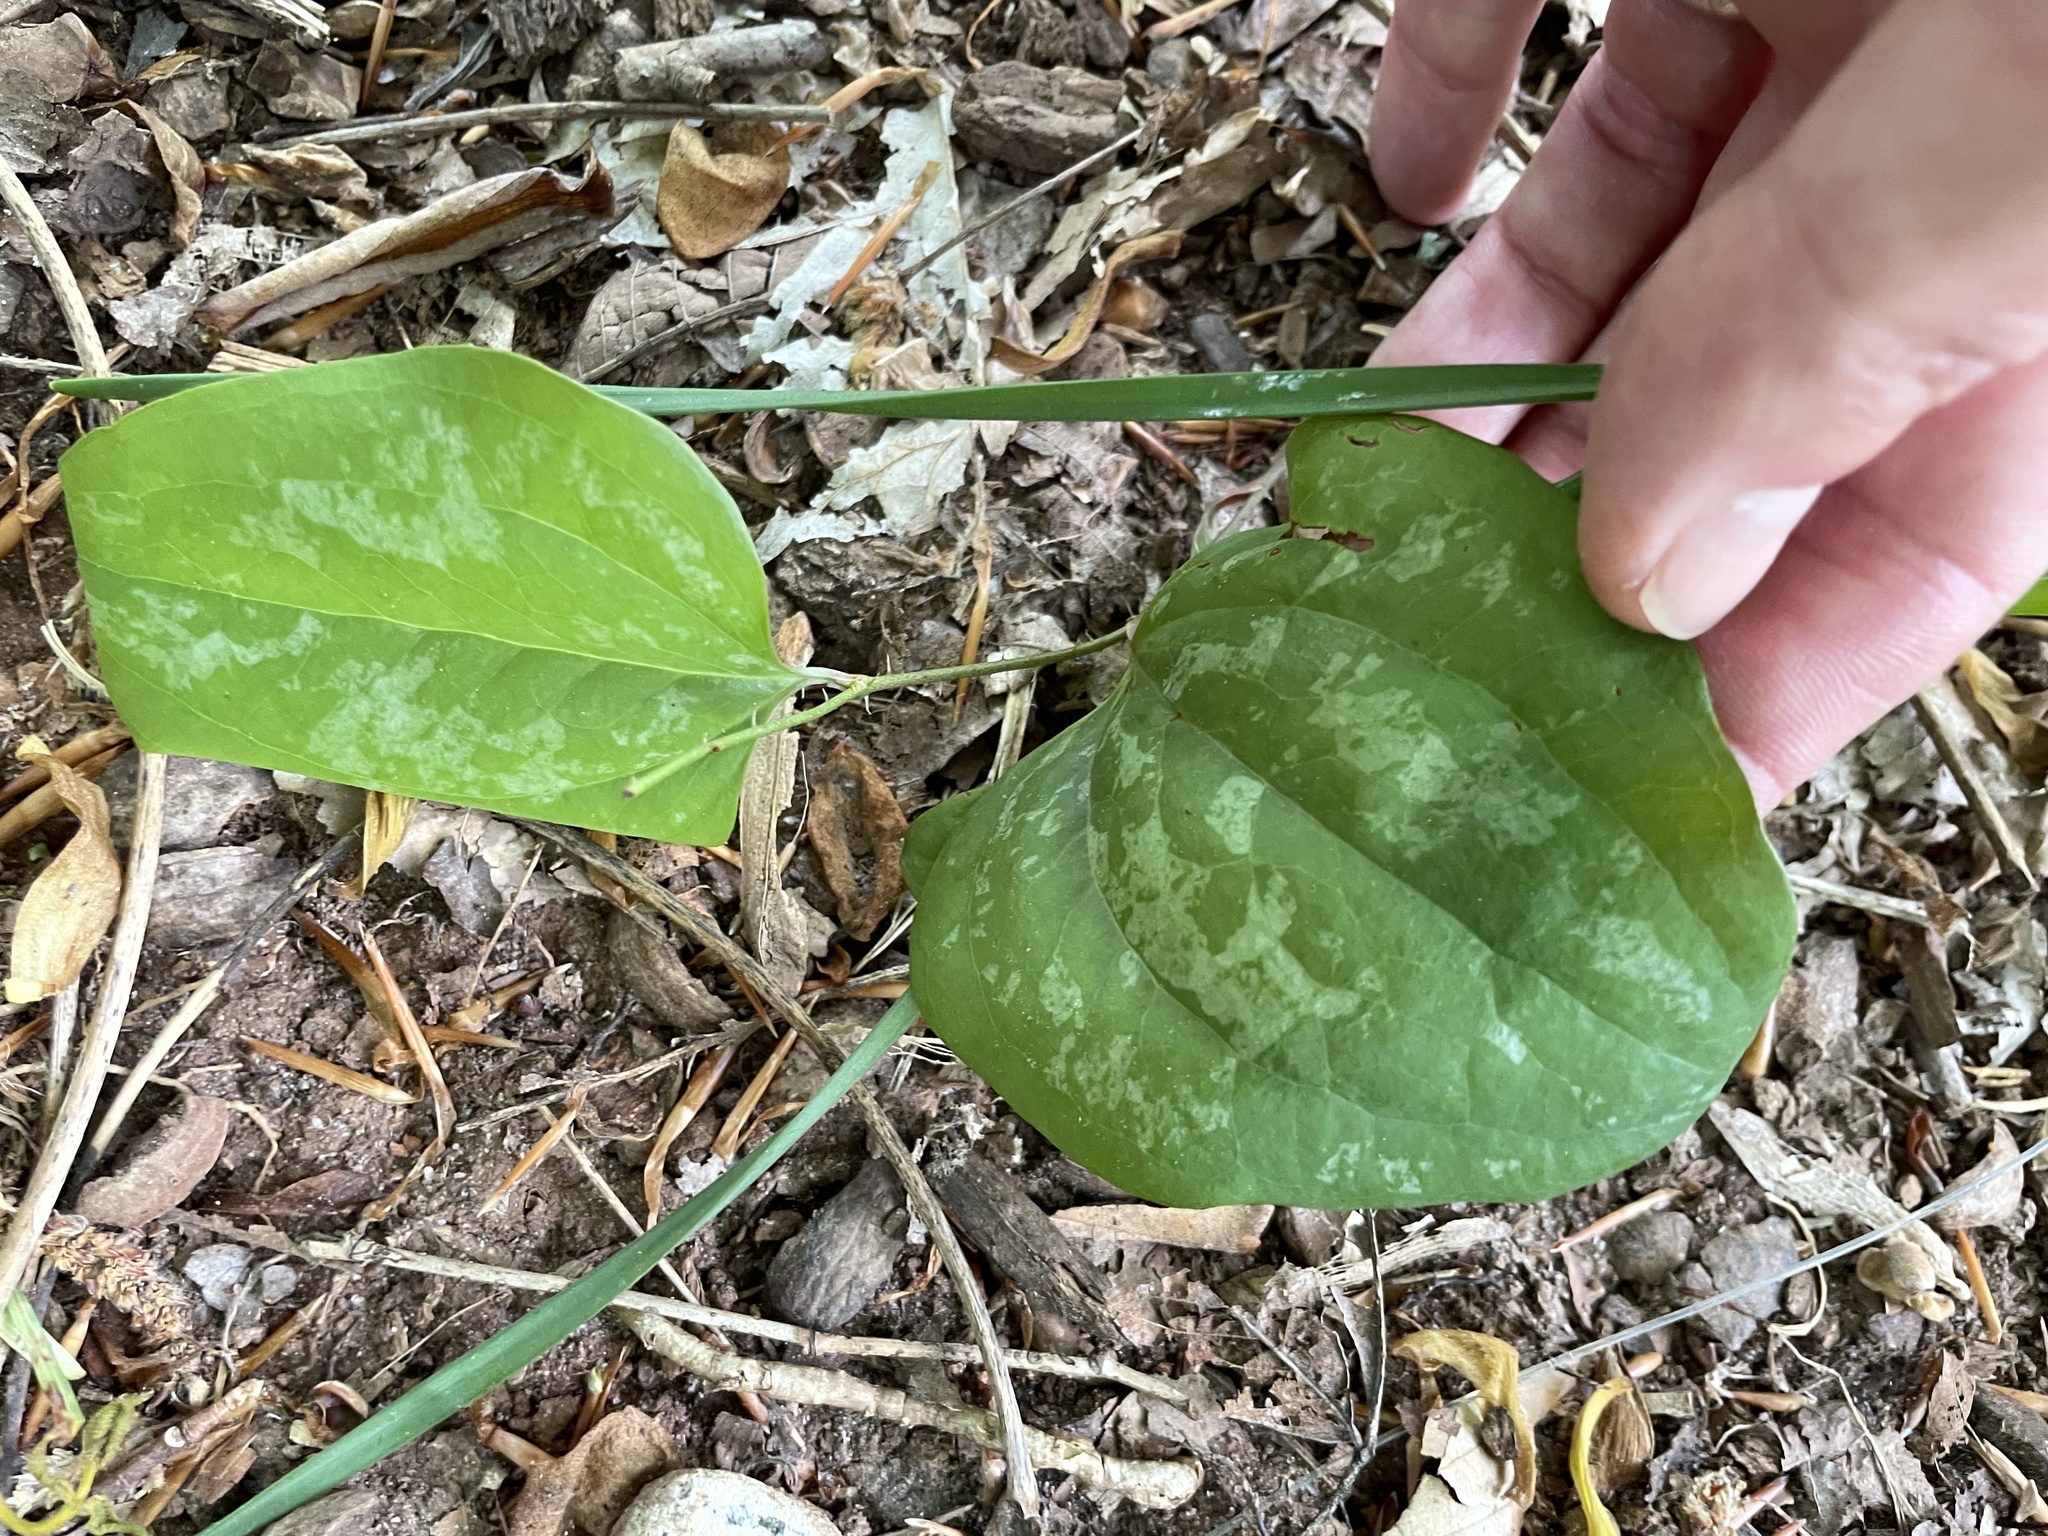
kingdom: Plantae
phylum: Tracheophyta
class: Liliopsida
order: Liliales
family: Smilacaceae
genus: Smilax
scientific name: Smilax glauca
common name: Cat greenbrier
